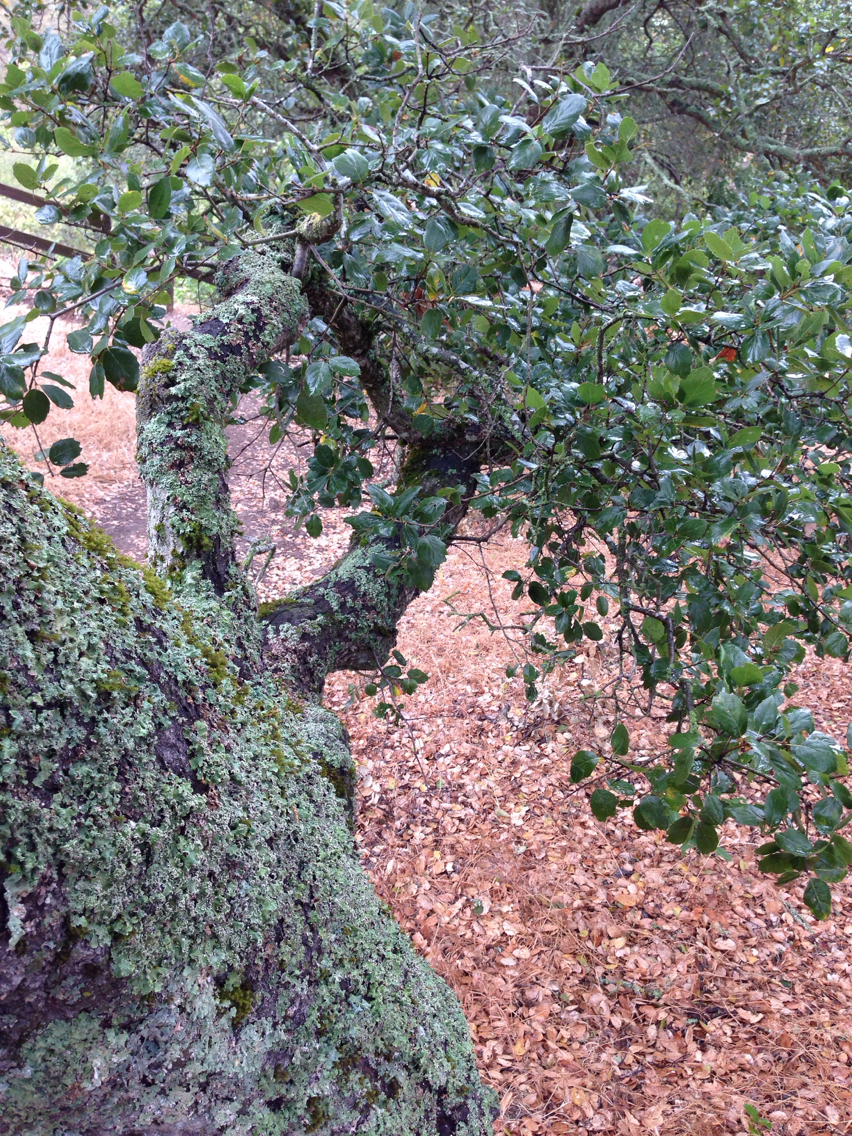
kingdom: Plantae
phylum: Tracheophyta
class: Magnoliopsida
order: Fagales
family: Fagaceae
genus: Quercus
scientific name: Quercus agrifolia
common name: California live oak
